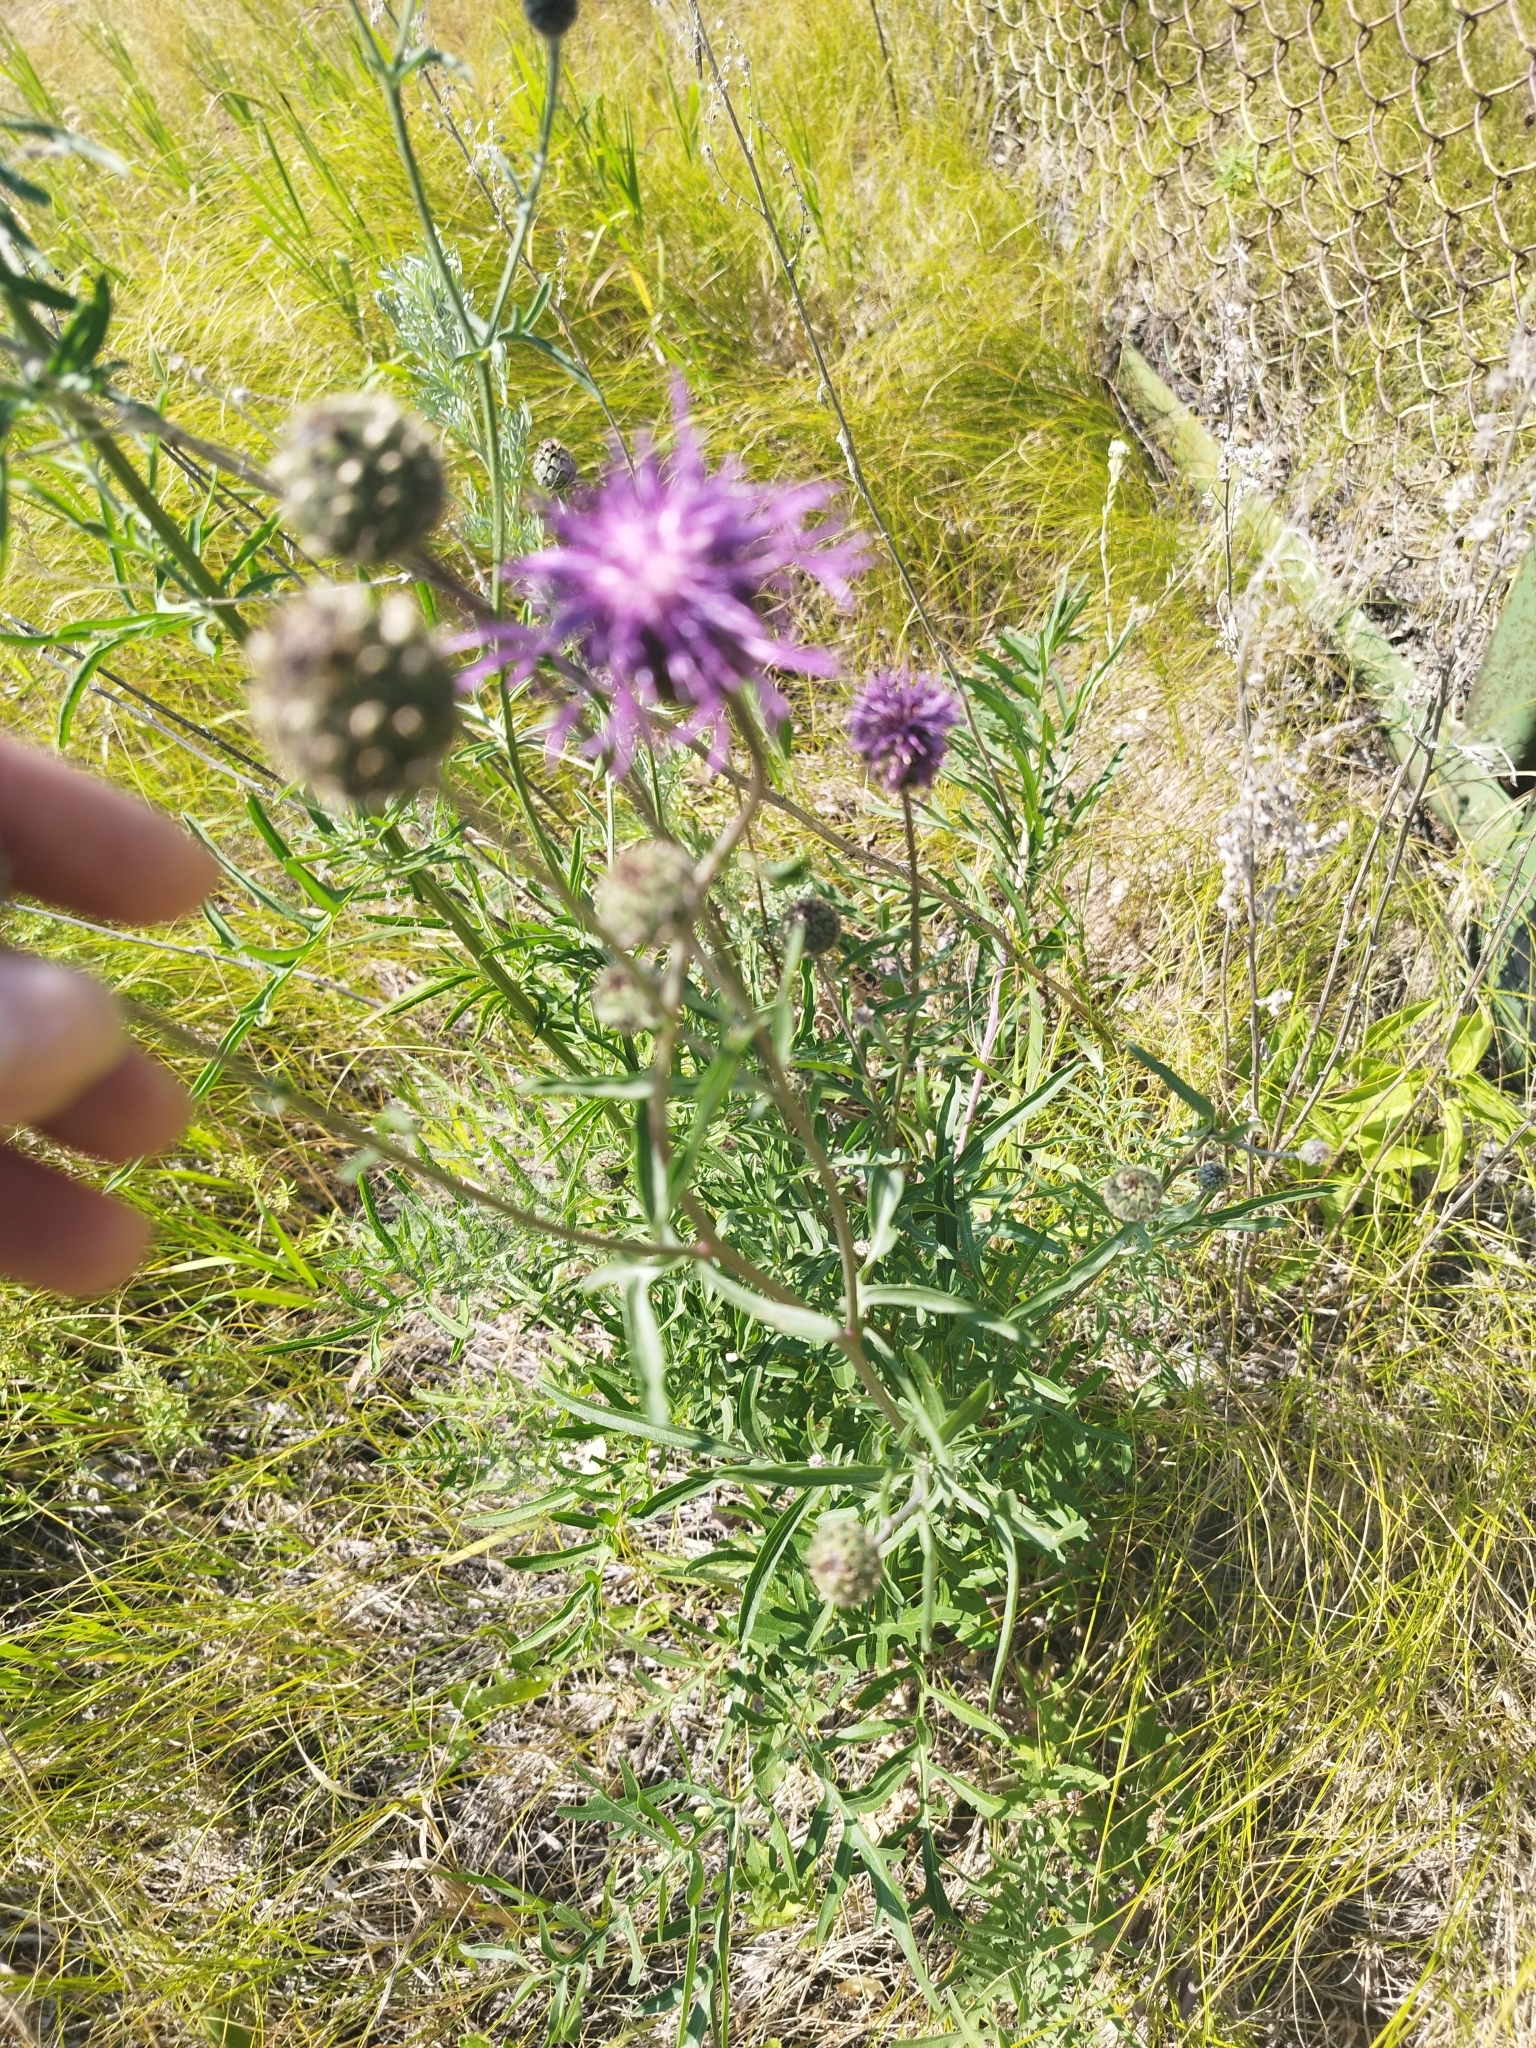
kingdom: Plantae
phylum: Tracheophyta
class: Magnoliopsida
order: Asterales
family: Asteraceae
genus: Centaurea
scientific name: Centaurea scabiosa
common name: Greater knapweed
